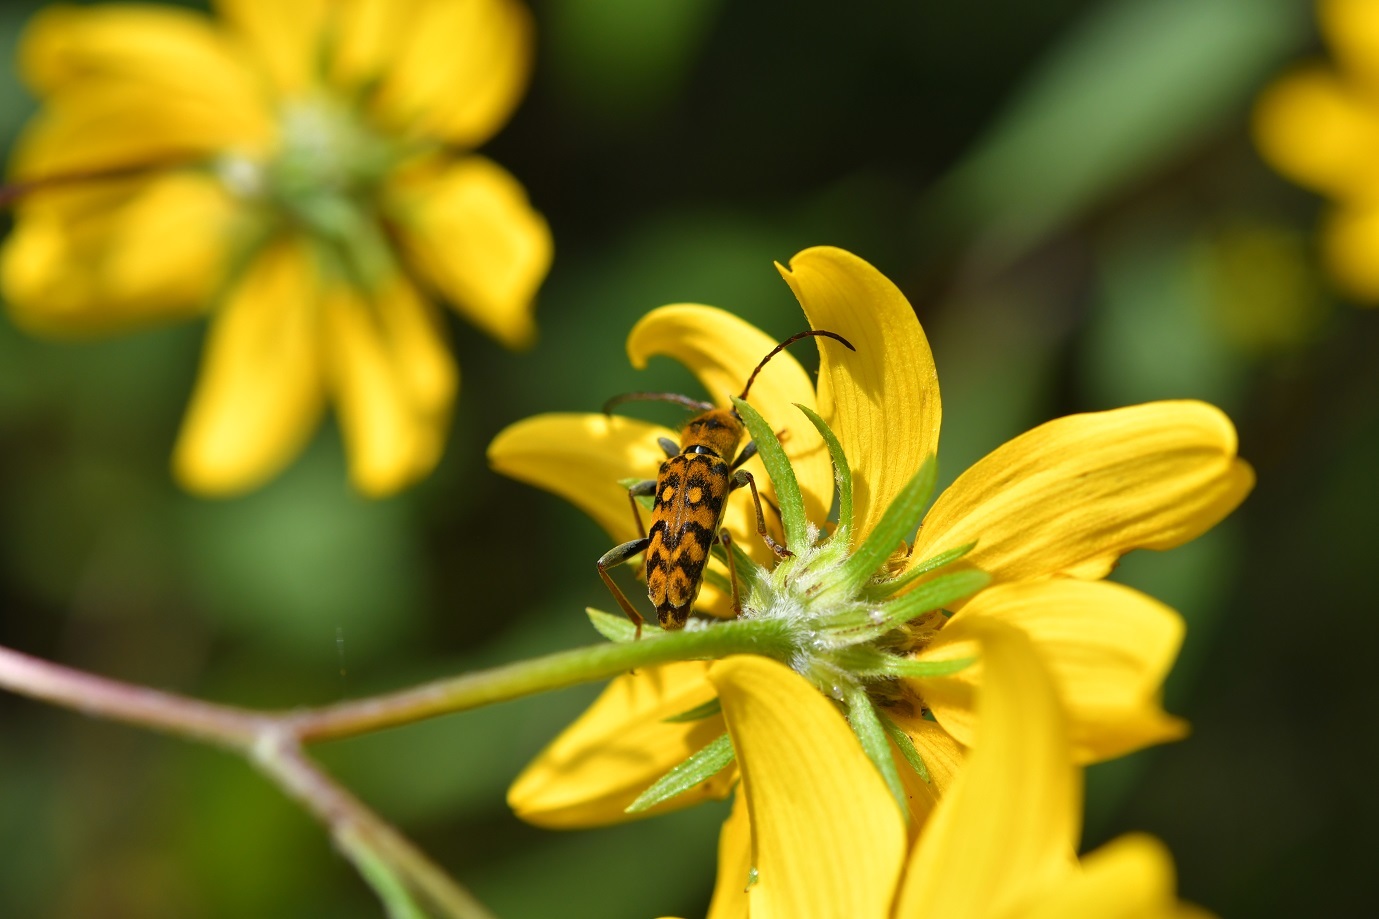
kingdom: Animalia
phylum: Arthropoda
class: Insecta
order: Coleoptera
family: Cerambycidae
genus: Ochraethes
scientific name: Ochraethes confusus
